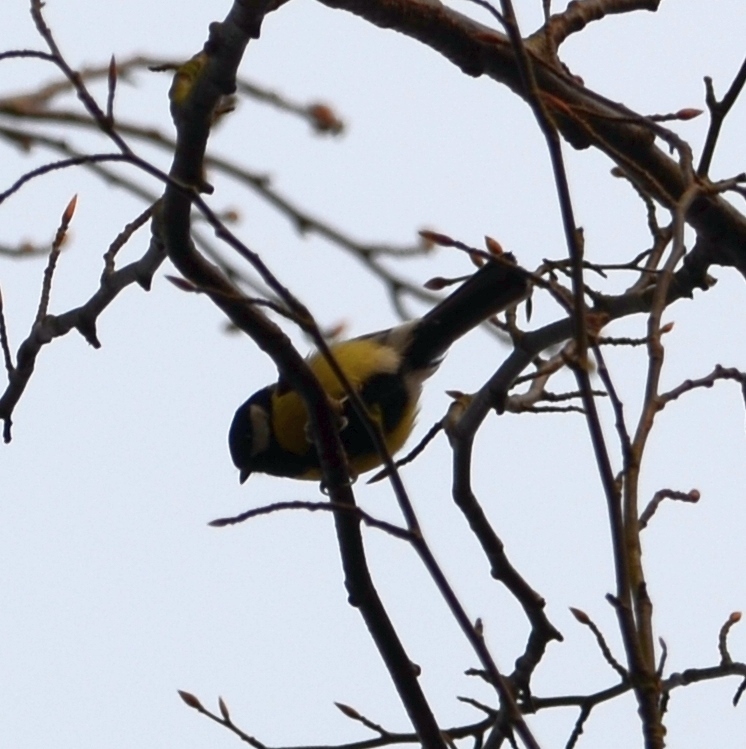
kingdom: Animalia
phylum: Chordata
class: Aves
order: Passeriformes
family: Paridae
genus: Parus
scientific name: Parus major
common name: Great tit
